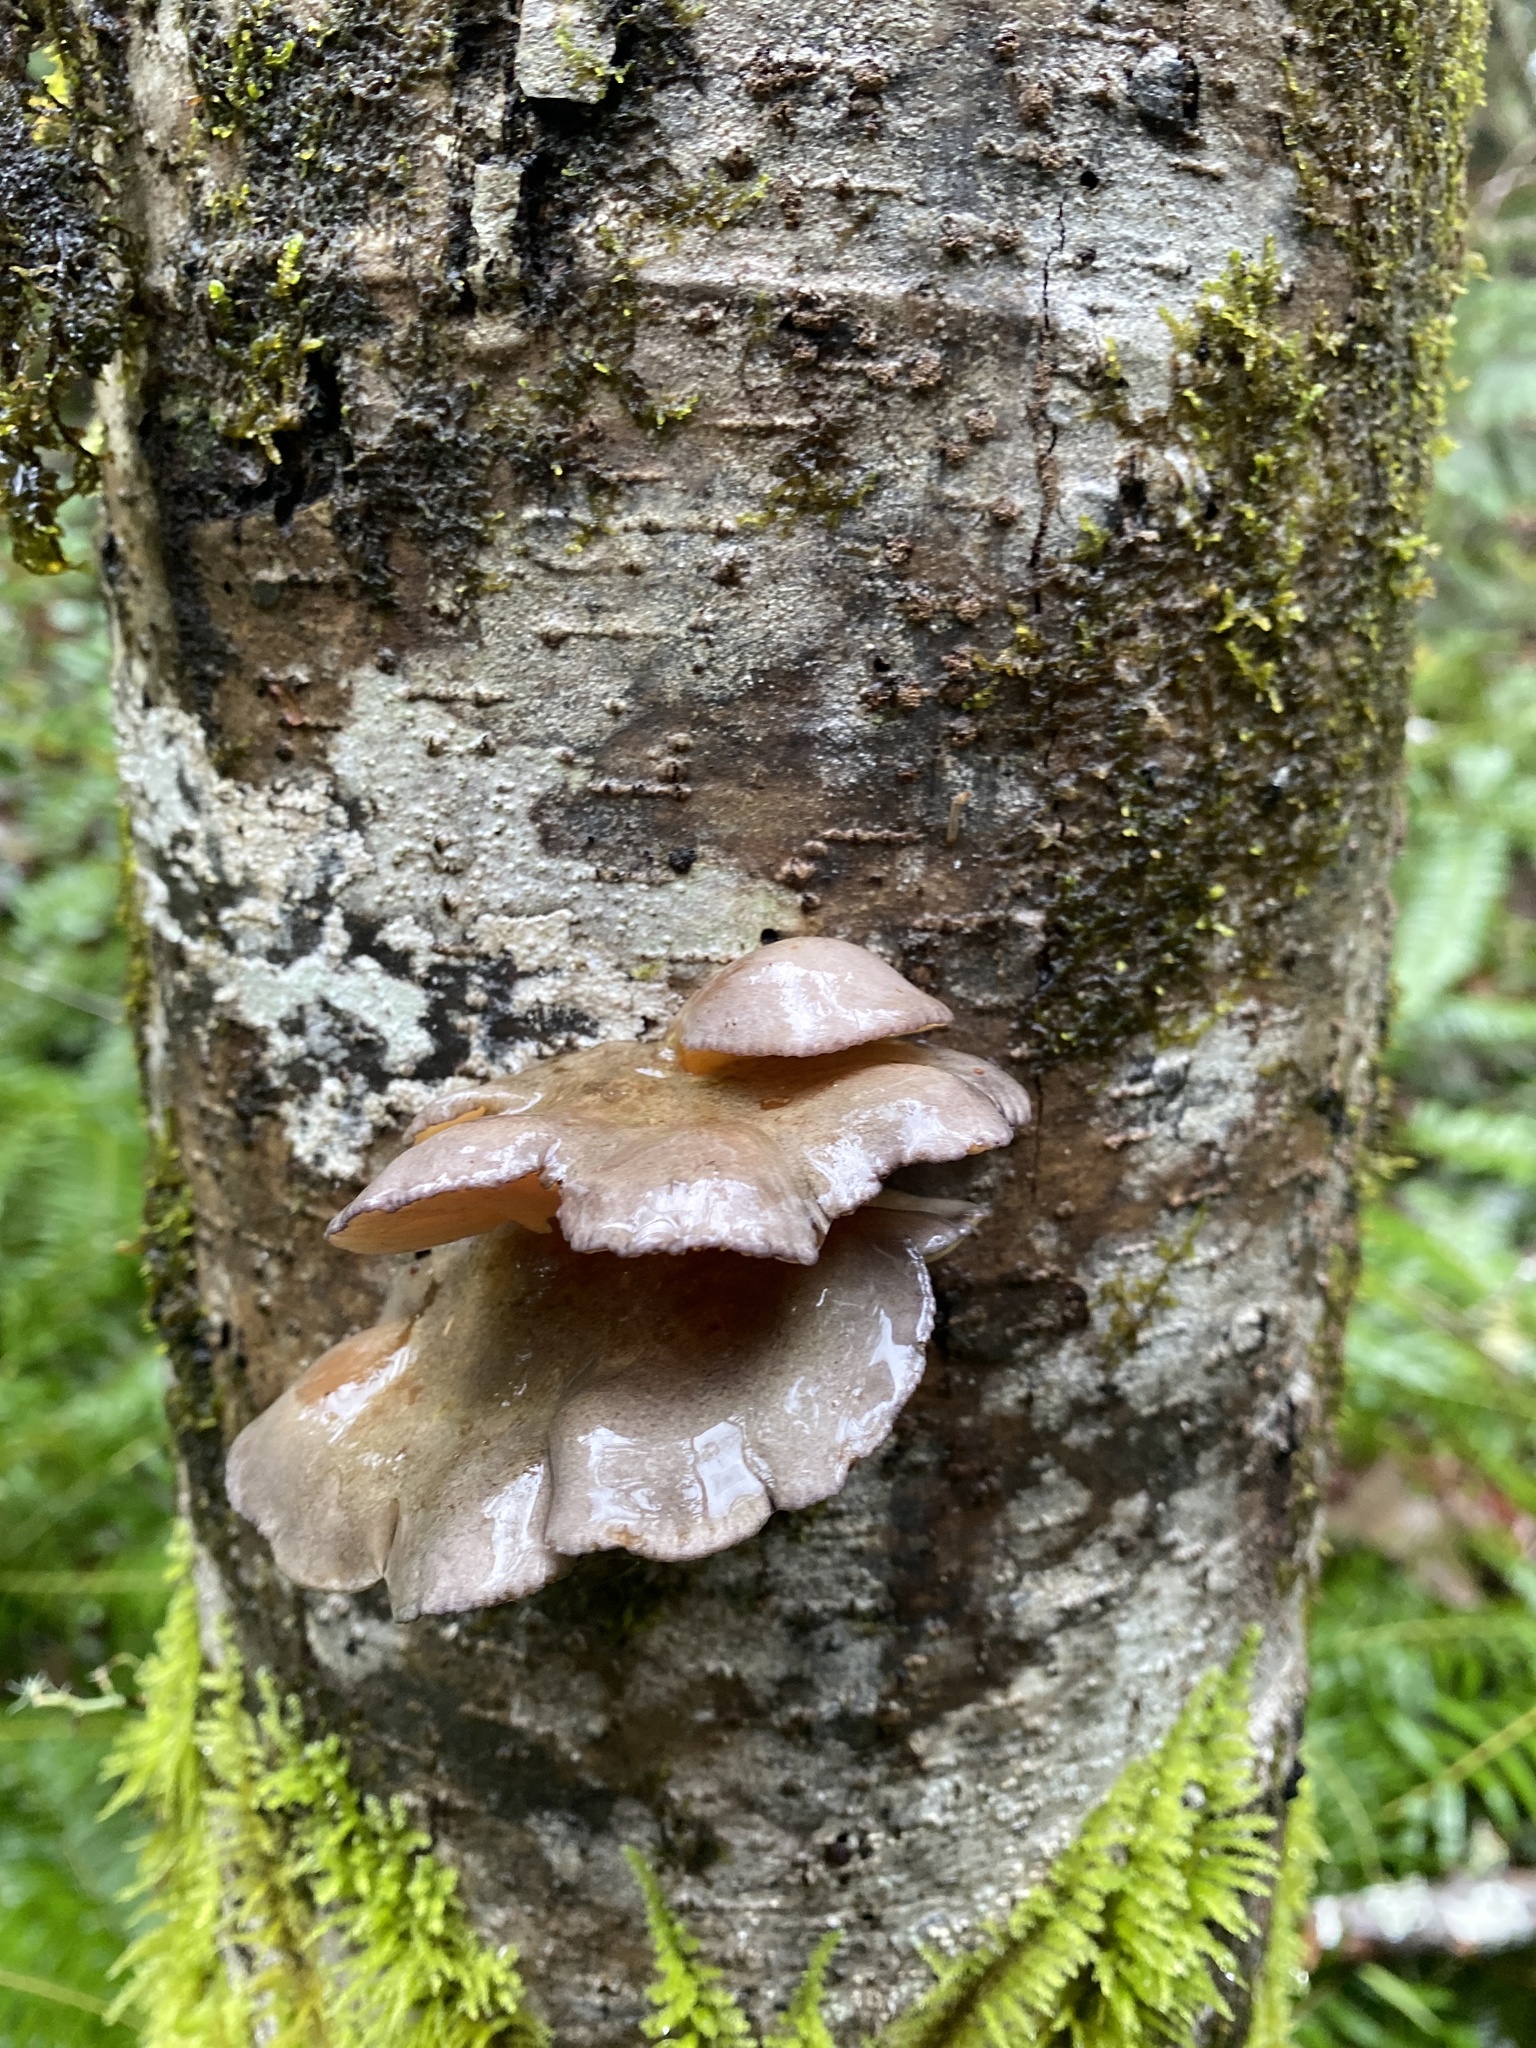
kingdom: Fungi
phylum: Basidiomycota
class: Agaricomycetes
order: Agaricales
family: Sarcomyxaceae
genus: Sarcomyxa
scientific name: Sarcomyxa serotina
